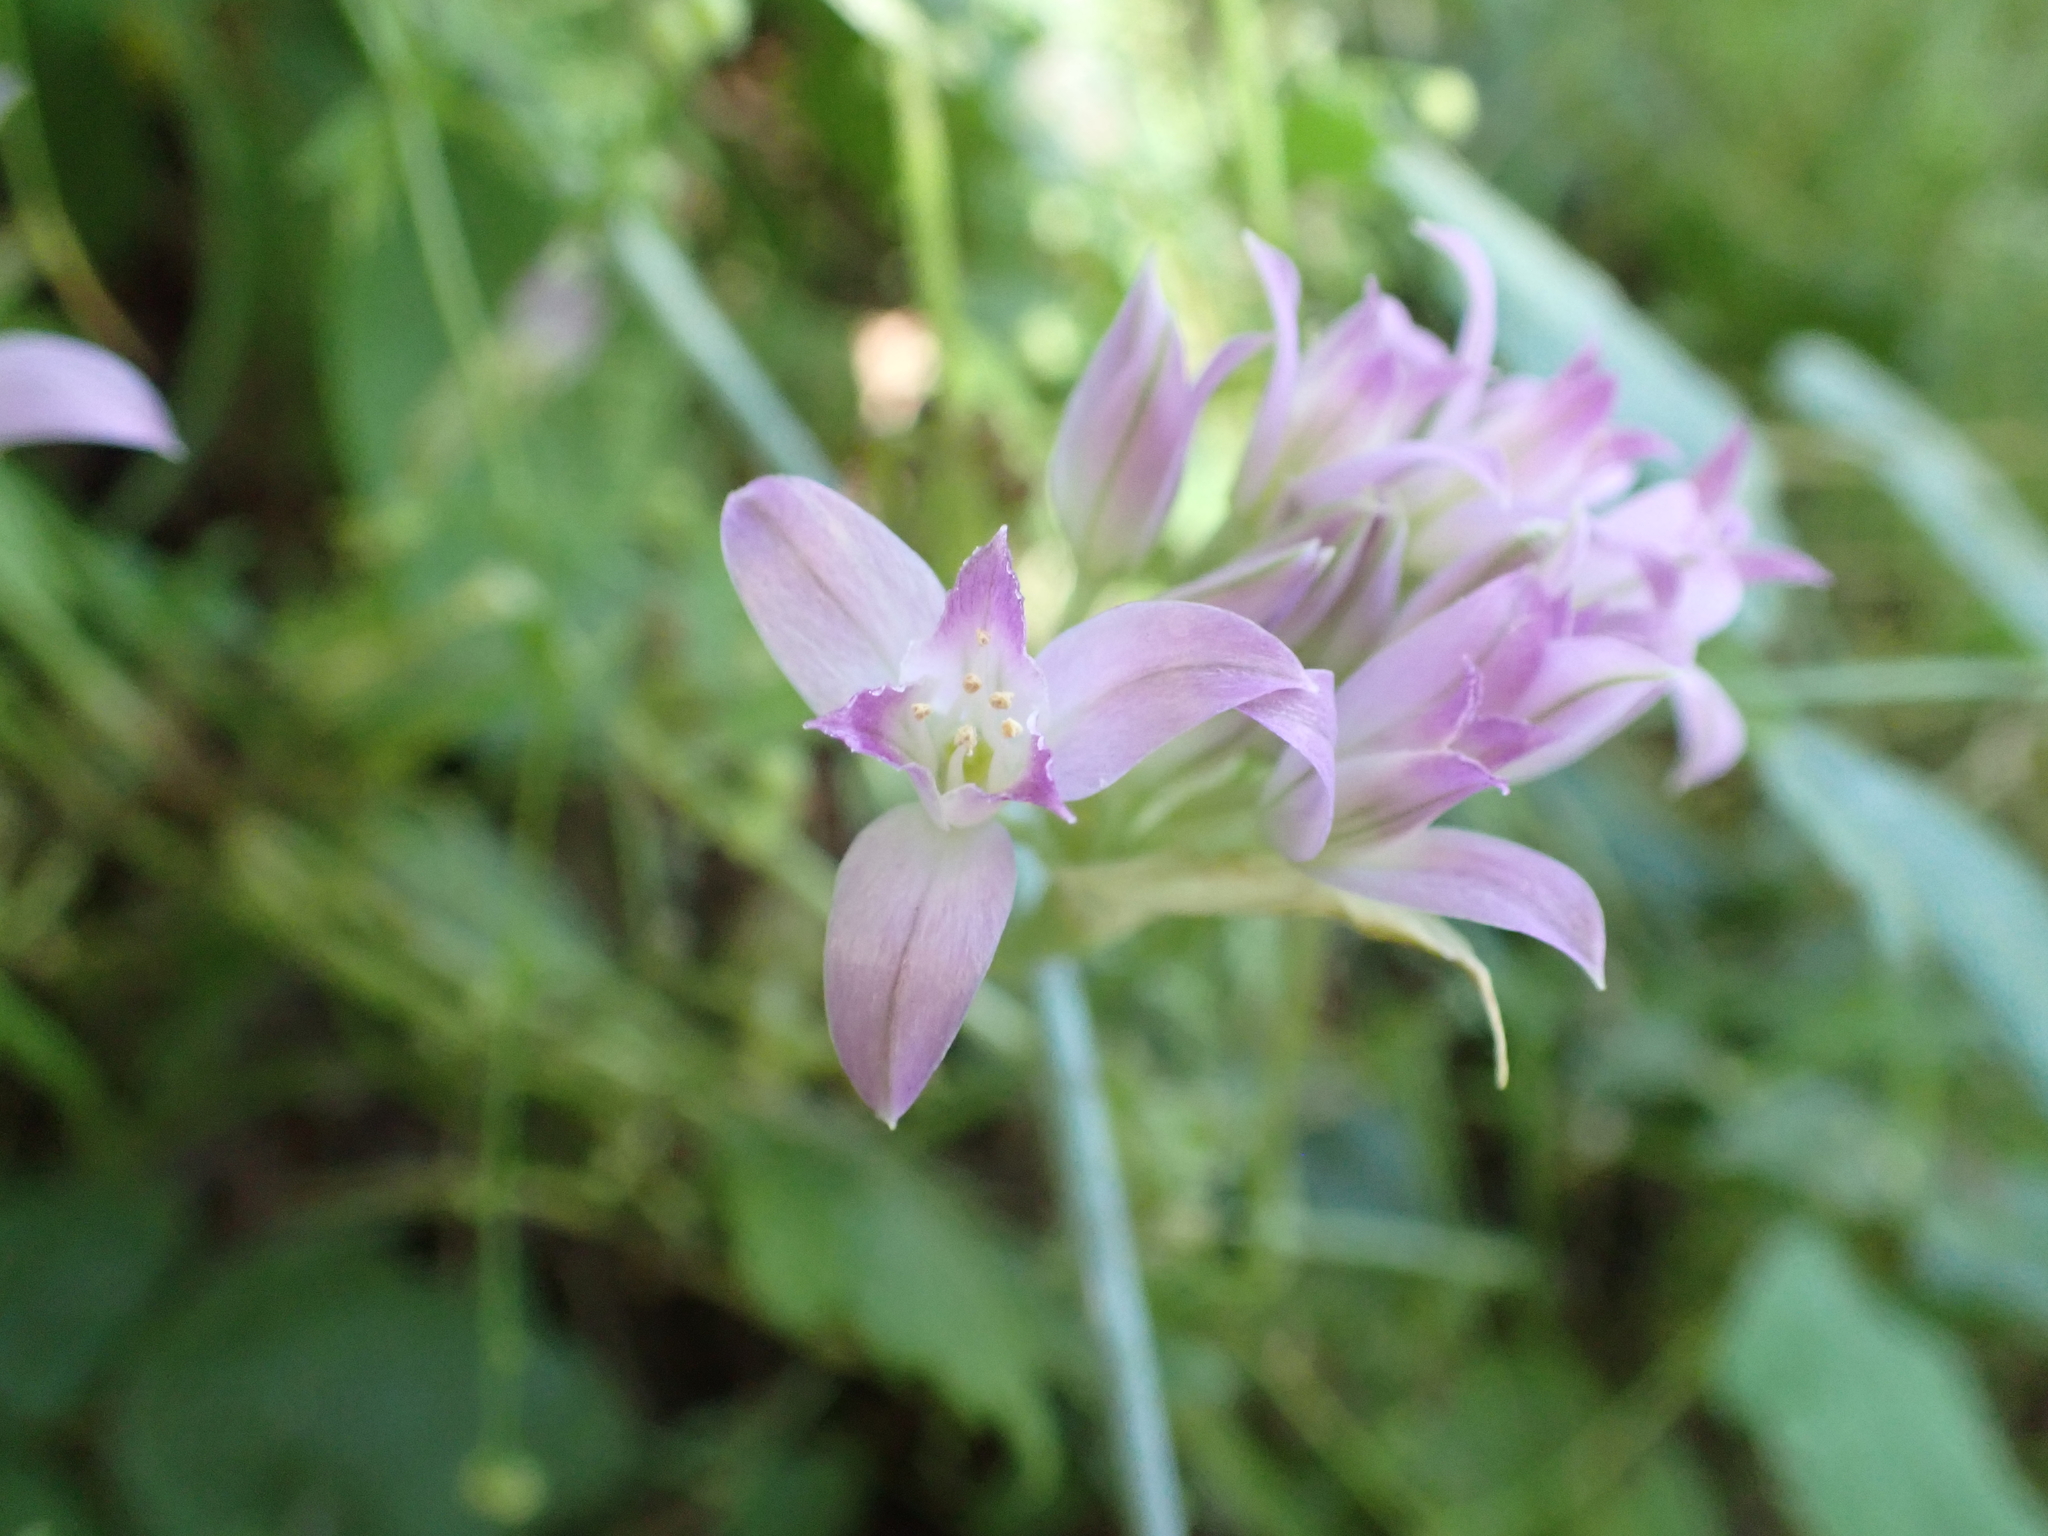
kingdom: Plantae
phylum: Tracheophyta
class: Liliopsida
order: Asparagales
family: Amaryllidaceae
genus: Allium
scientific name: Allium acuminatum
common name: Hooker's onion
